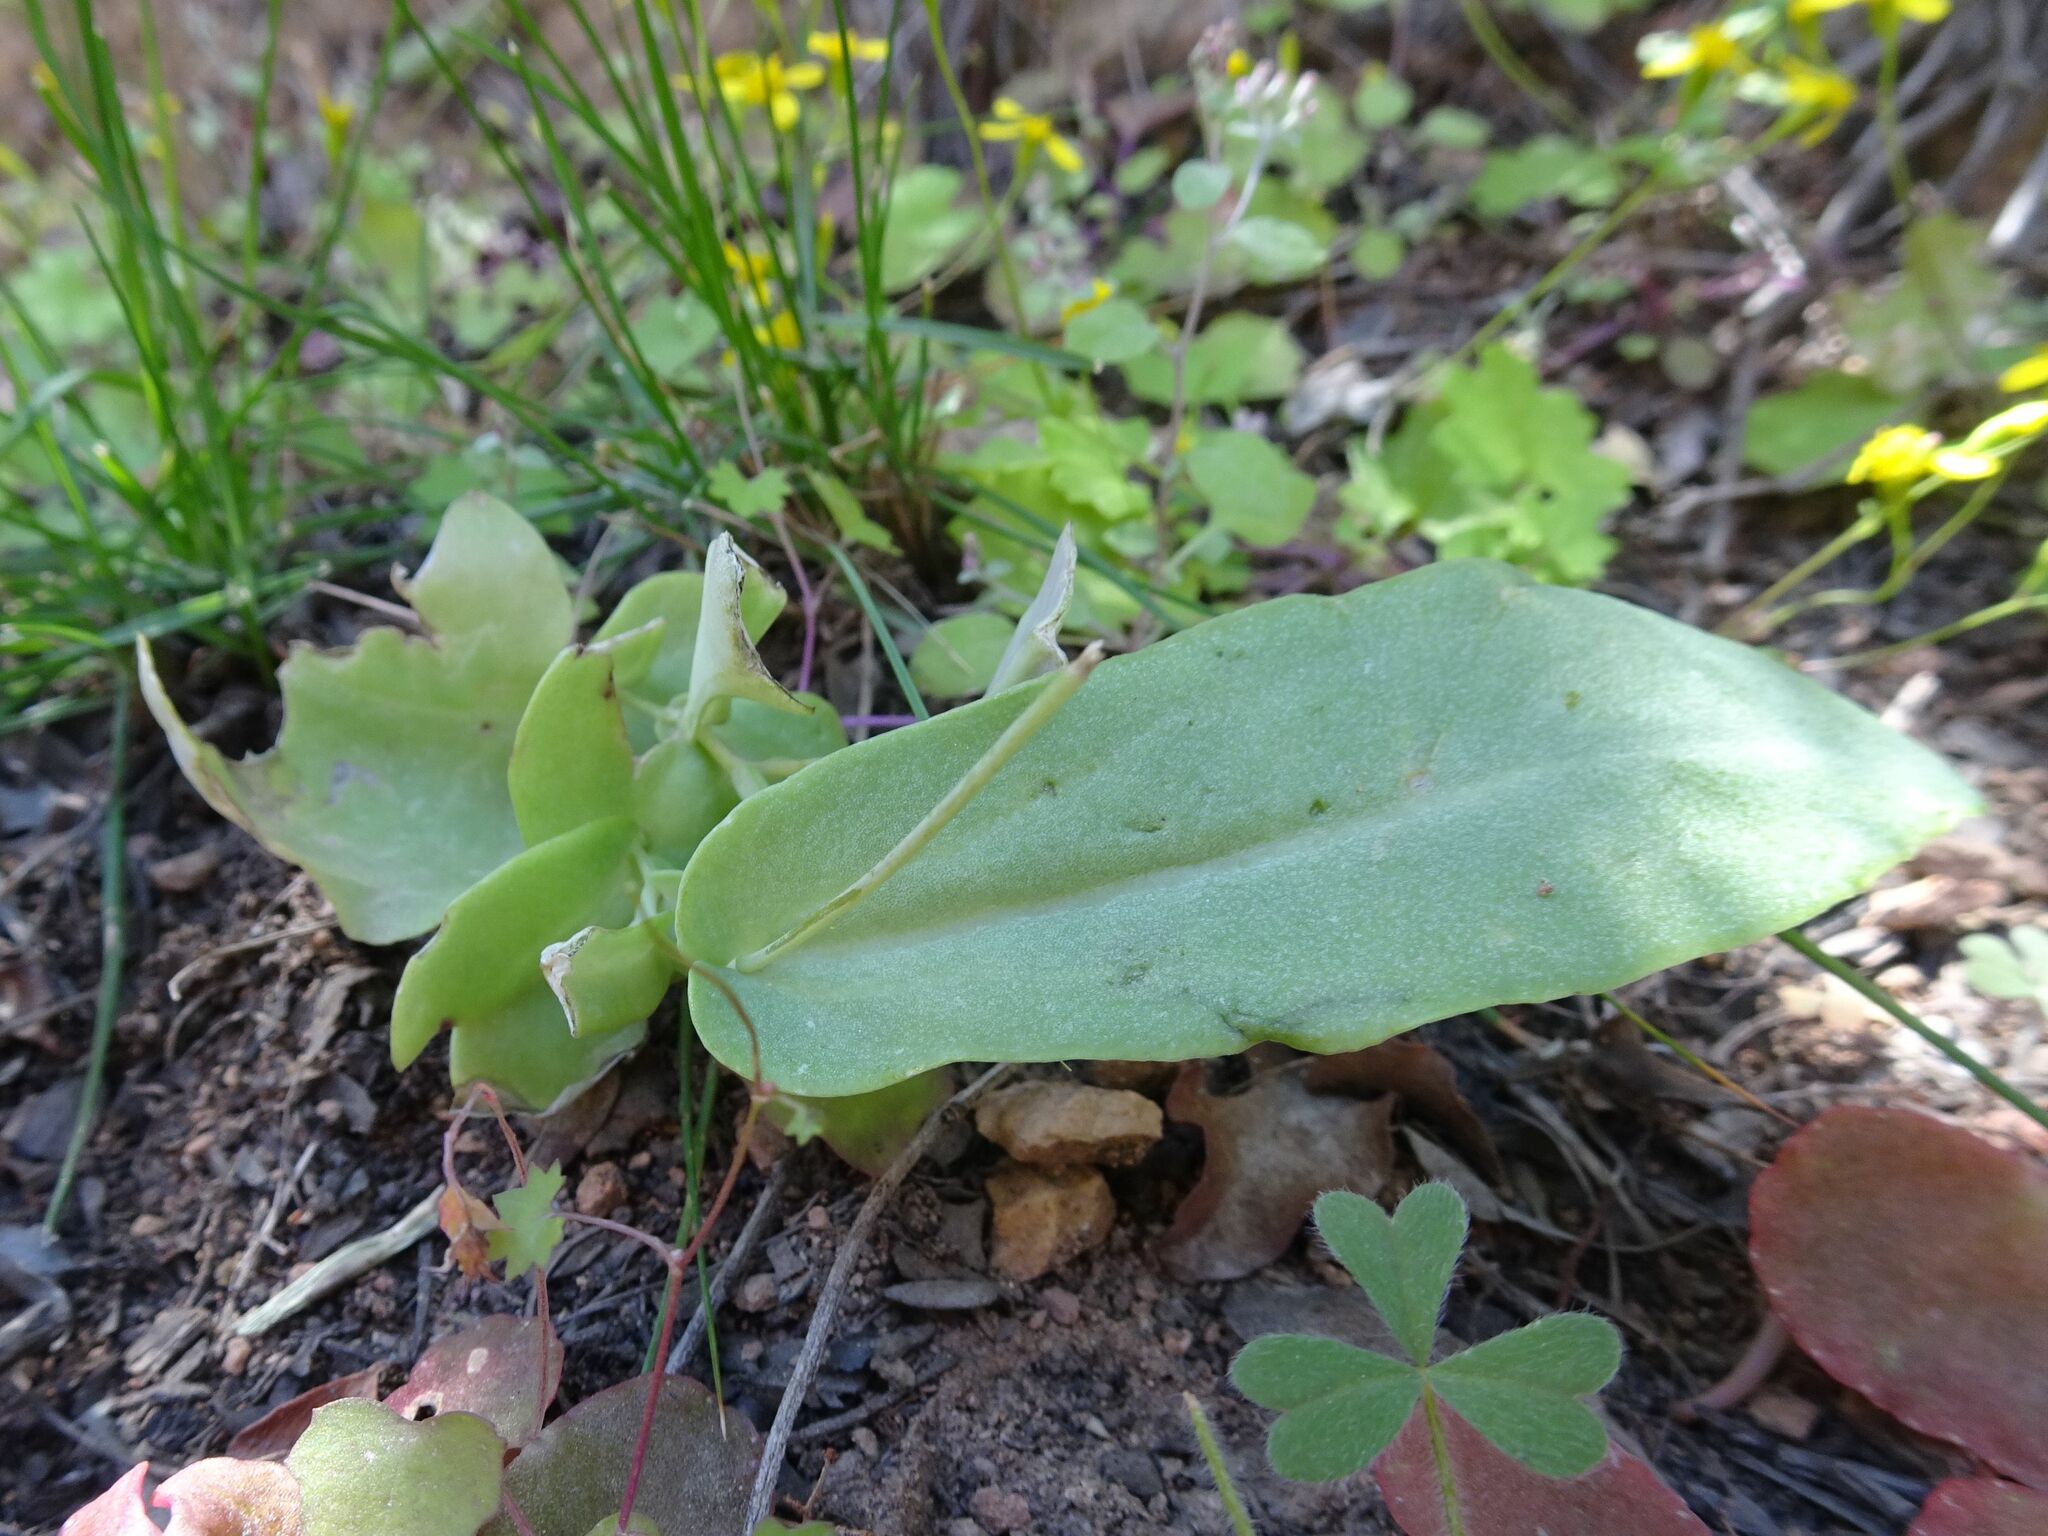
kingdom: Plantae
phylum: Tracheophyta
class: Magnoliopsida
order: Asterales
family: Asteraceae
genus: Othonna
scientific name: Othonna undulosa
